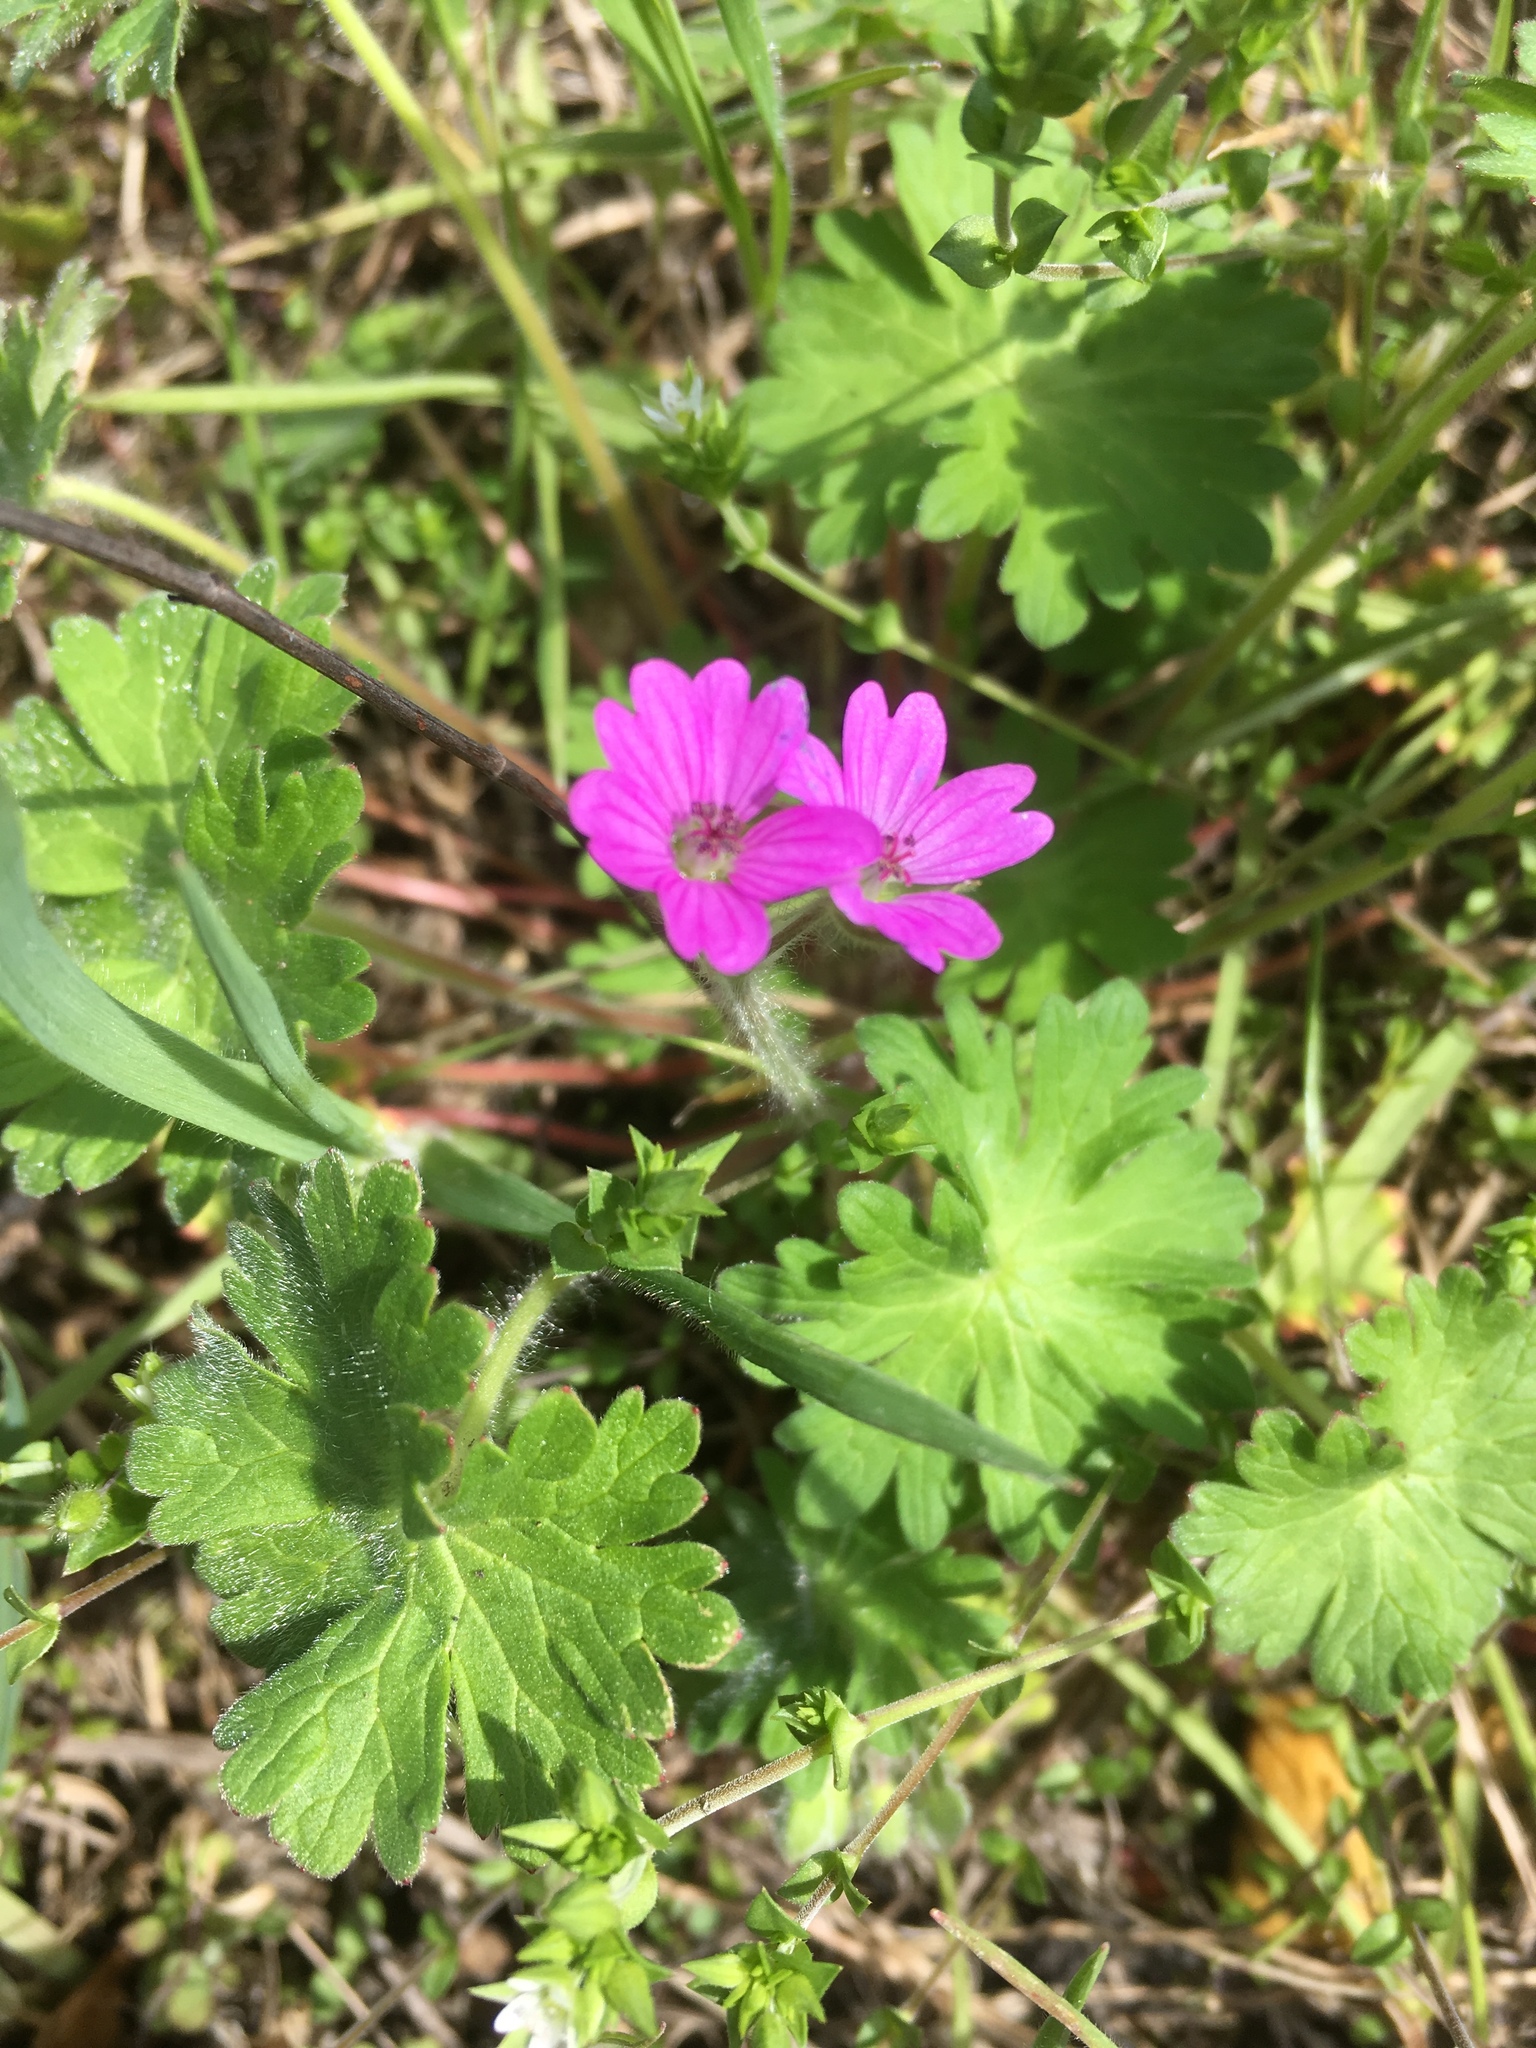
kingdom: Plantae
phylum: Tracheophyta
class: Magnoliopsida
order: Geraniales
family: Geraniaceae
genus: Geranium
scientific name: Geranium molle
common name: Dove's-foot crane's-bill
